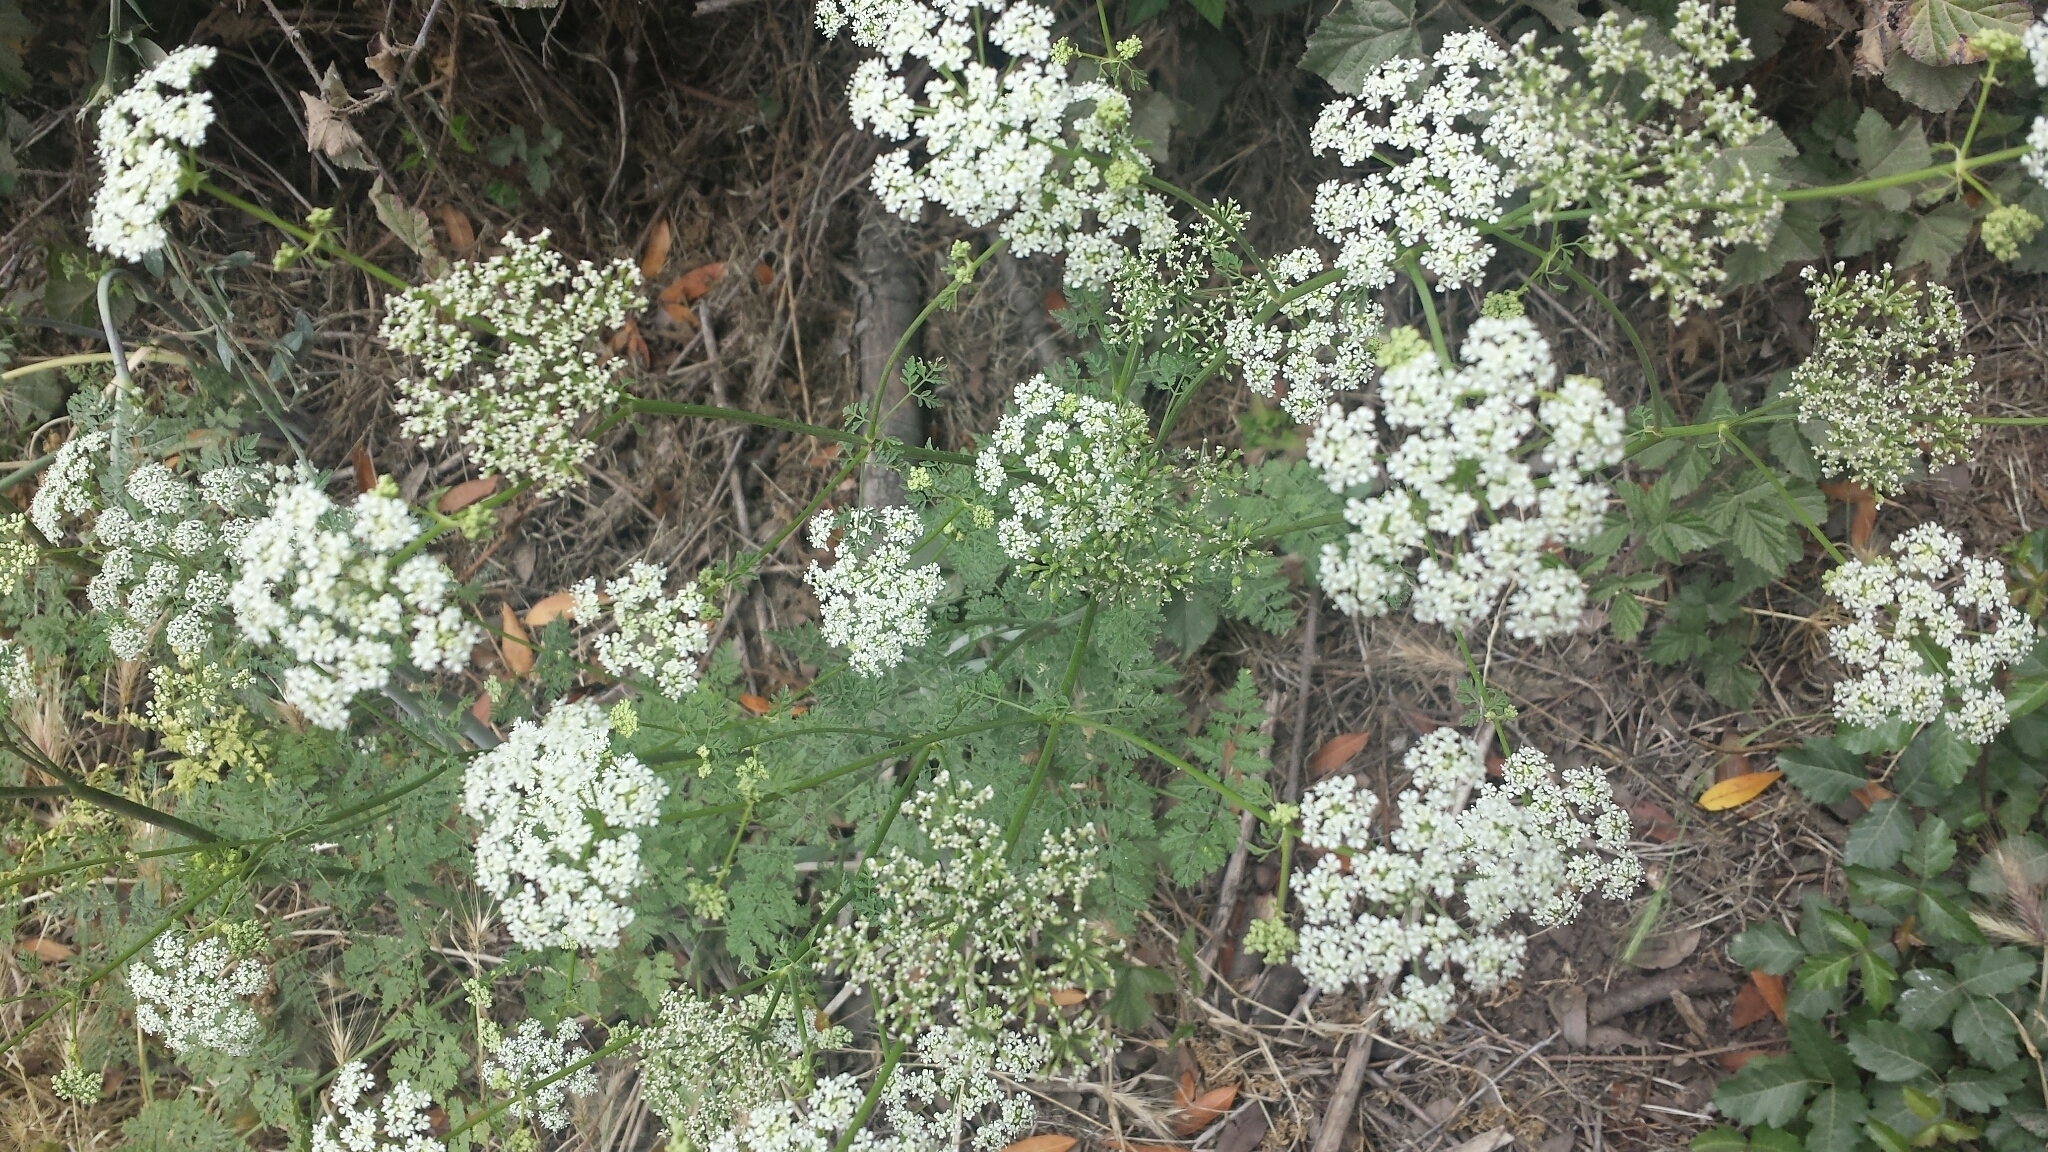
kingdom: Plantae
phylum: Tracheophyta
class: Magnoliopsida
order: Apiales
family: Apiaceae
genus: Conium
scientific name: Conium maculatum
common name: Hemlock
